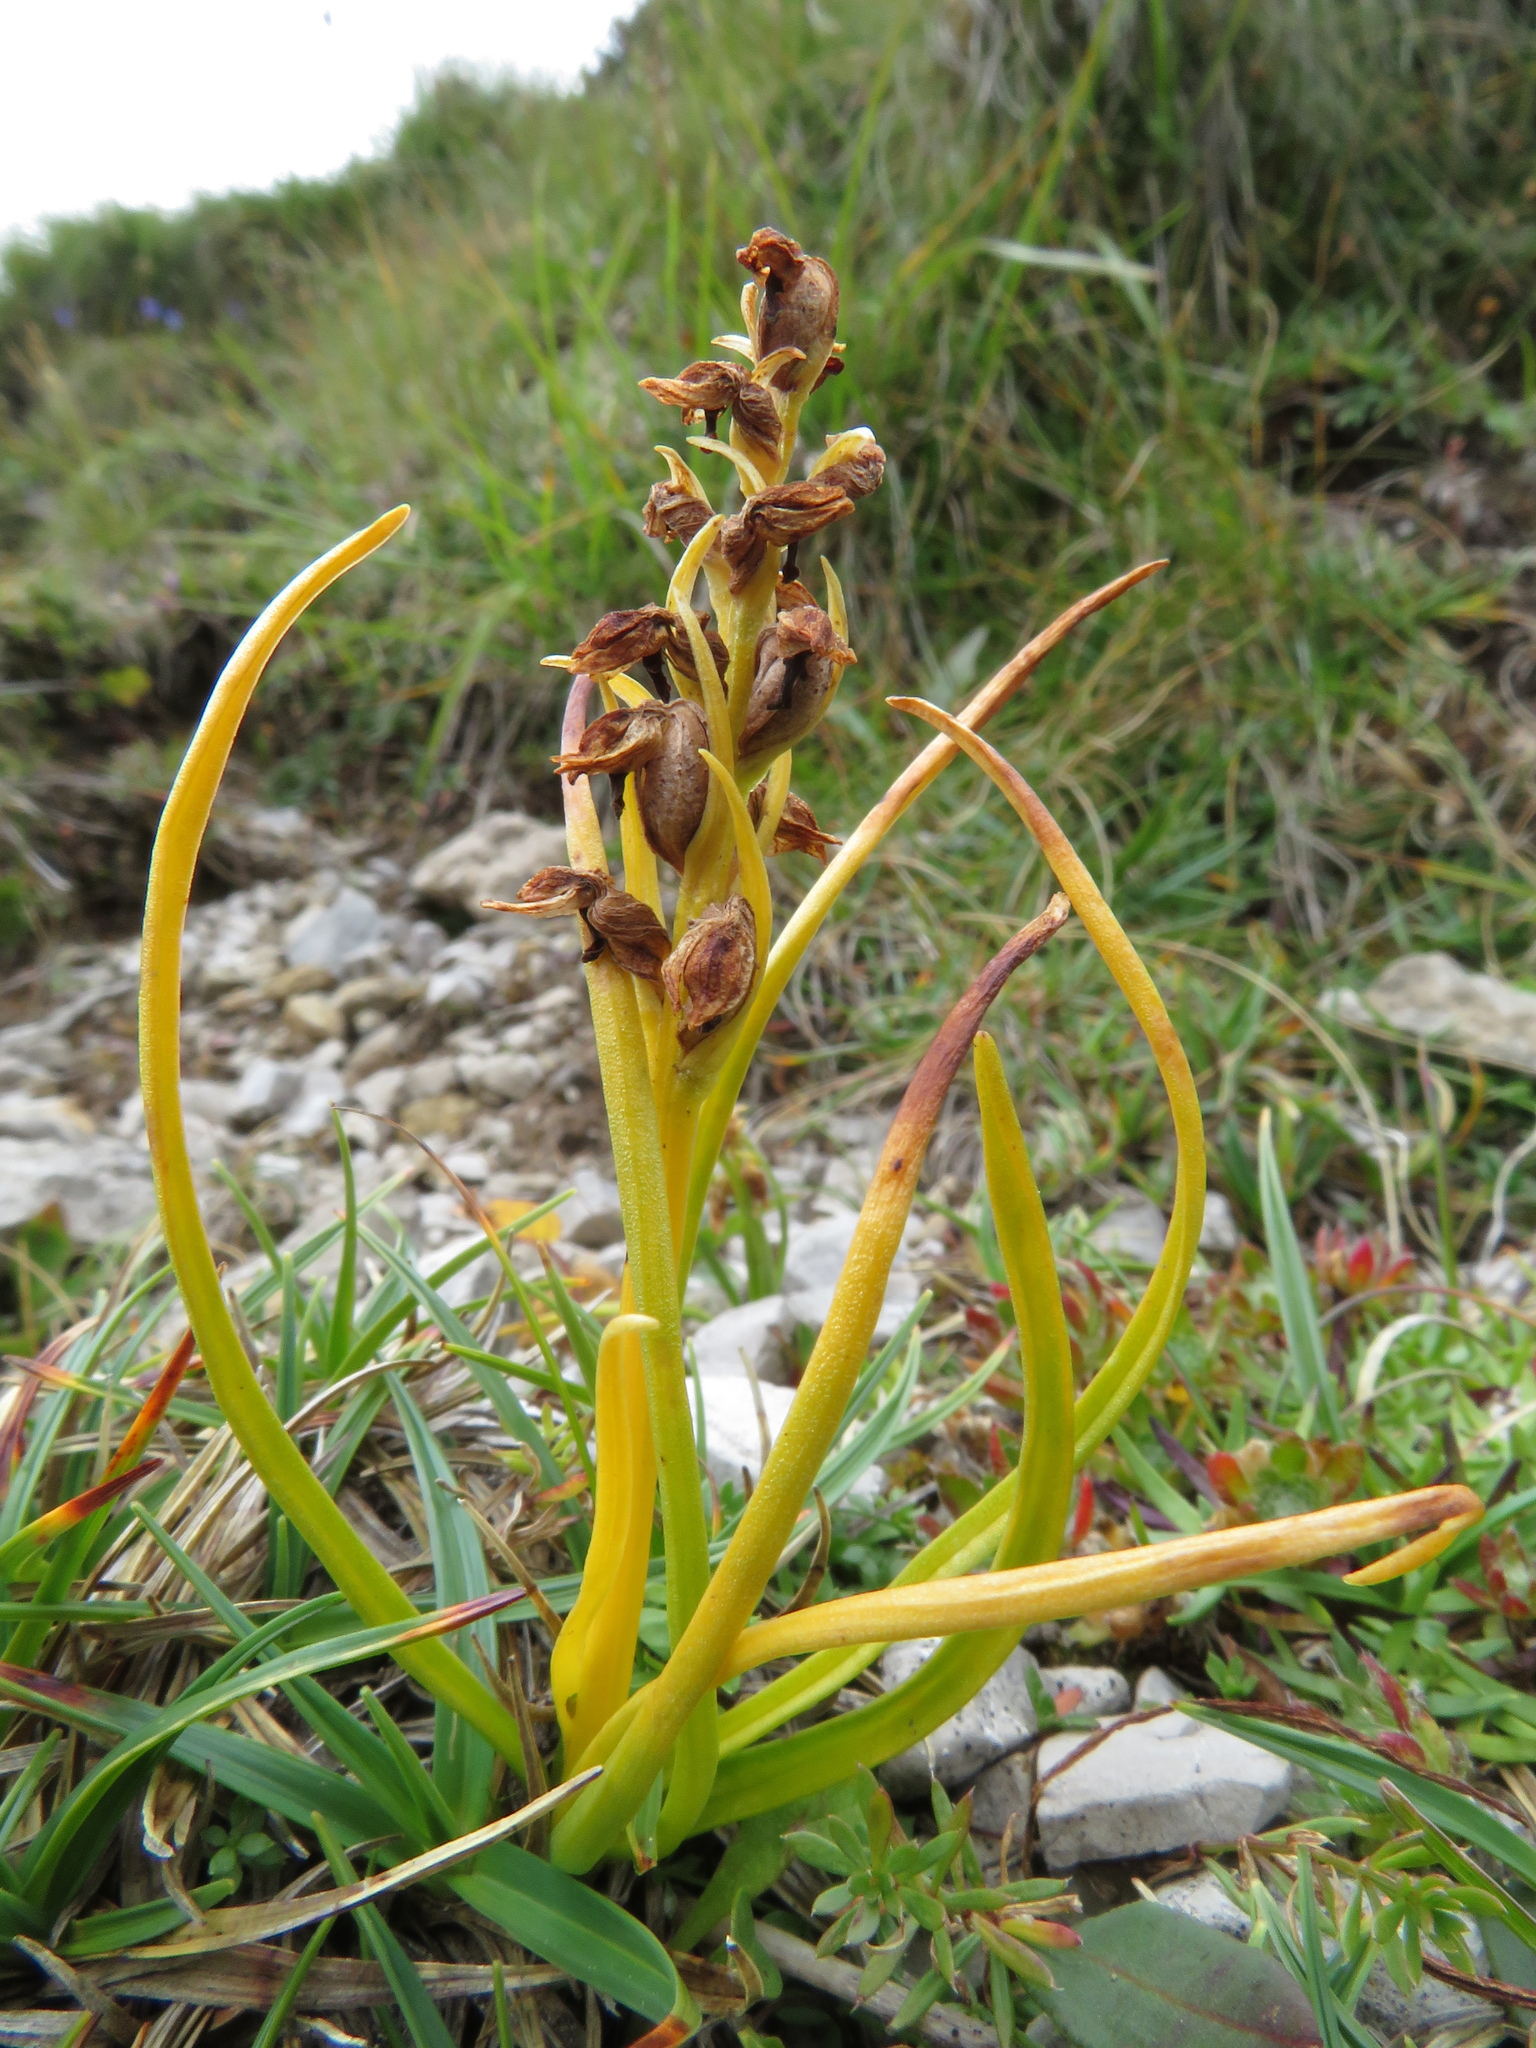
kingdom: Plantae
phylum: Tracheophyta
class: Liliopsida
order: Asparagales
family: Orchidaceae
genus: Chamorchis
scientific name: Chamorchis alpina
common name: Alpine chamorchis
